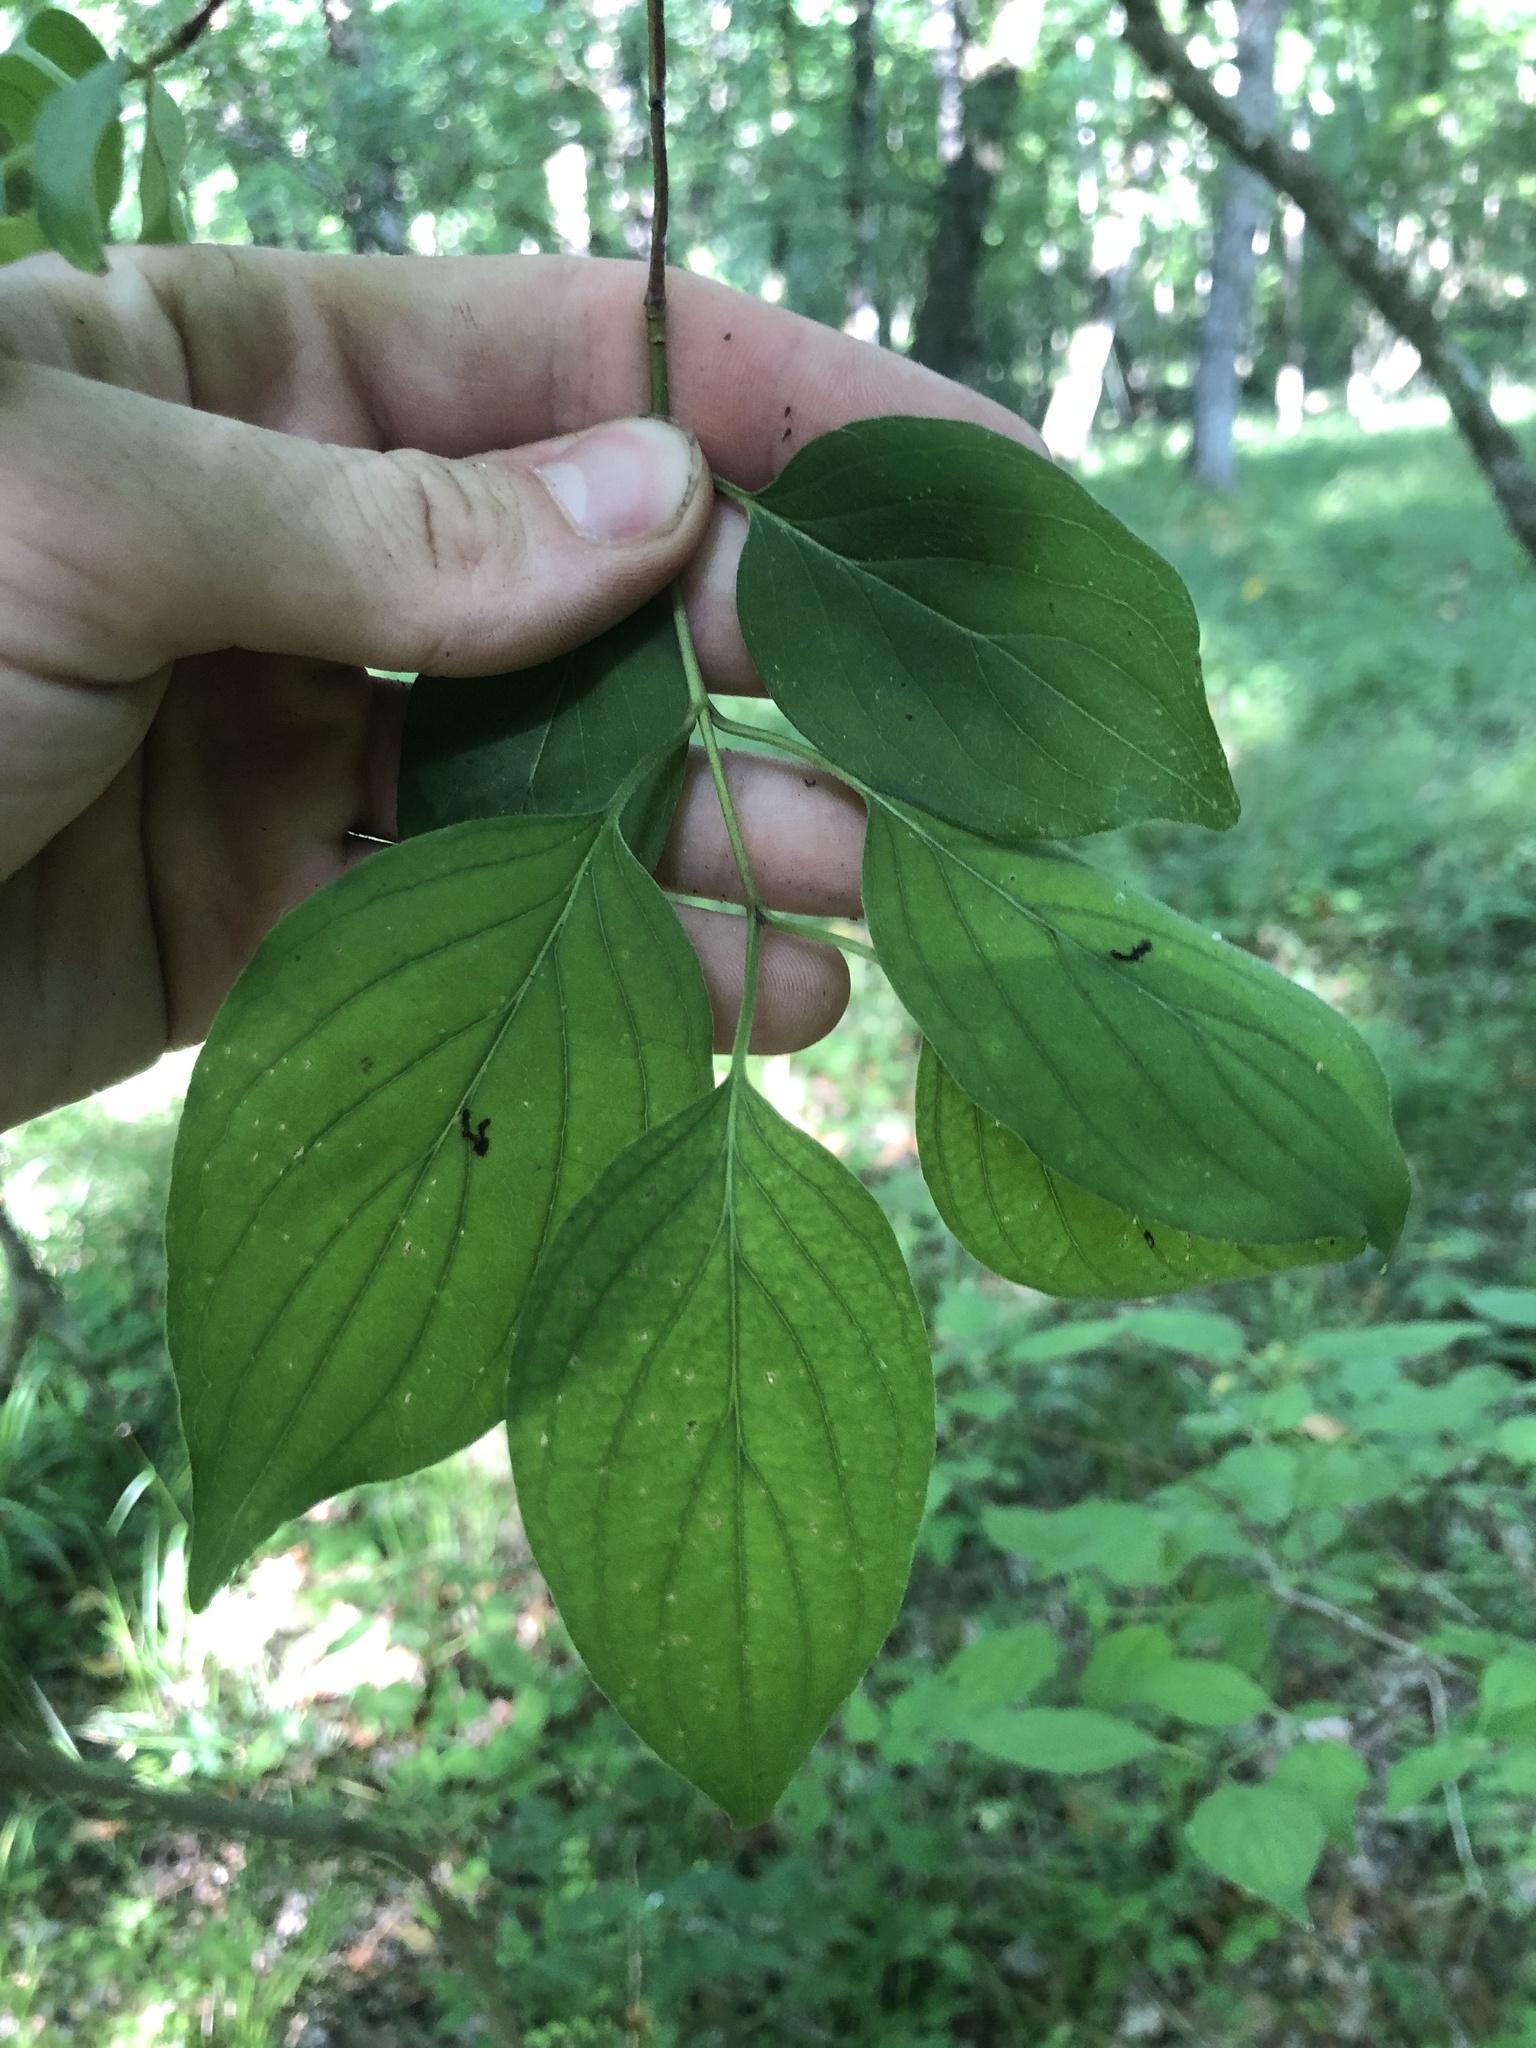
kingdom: Plantae
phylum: Tracheophyta
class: Magnoliopsida
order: Cornales
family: Cornaceae
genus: Cornus
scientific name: Cornus amomum
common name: Silky dogwood
